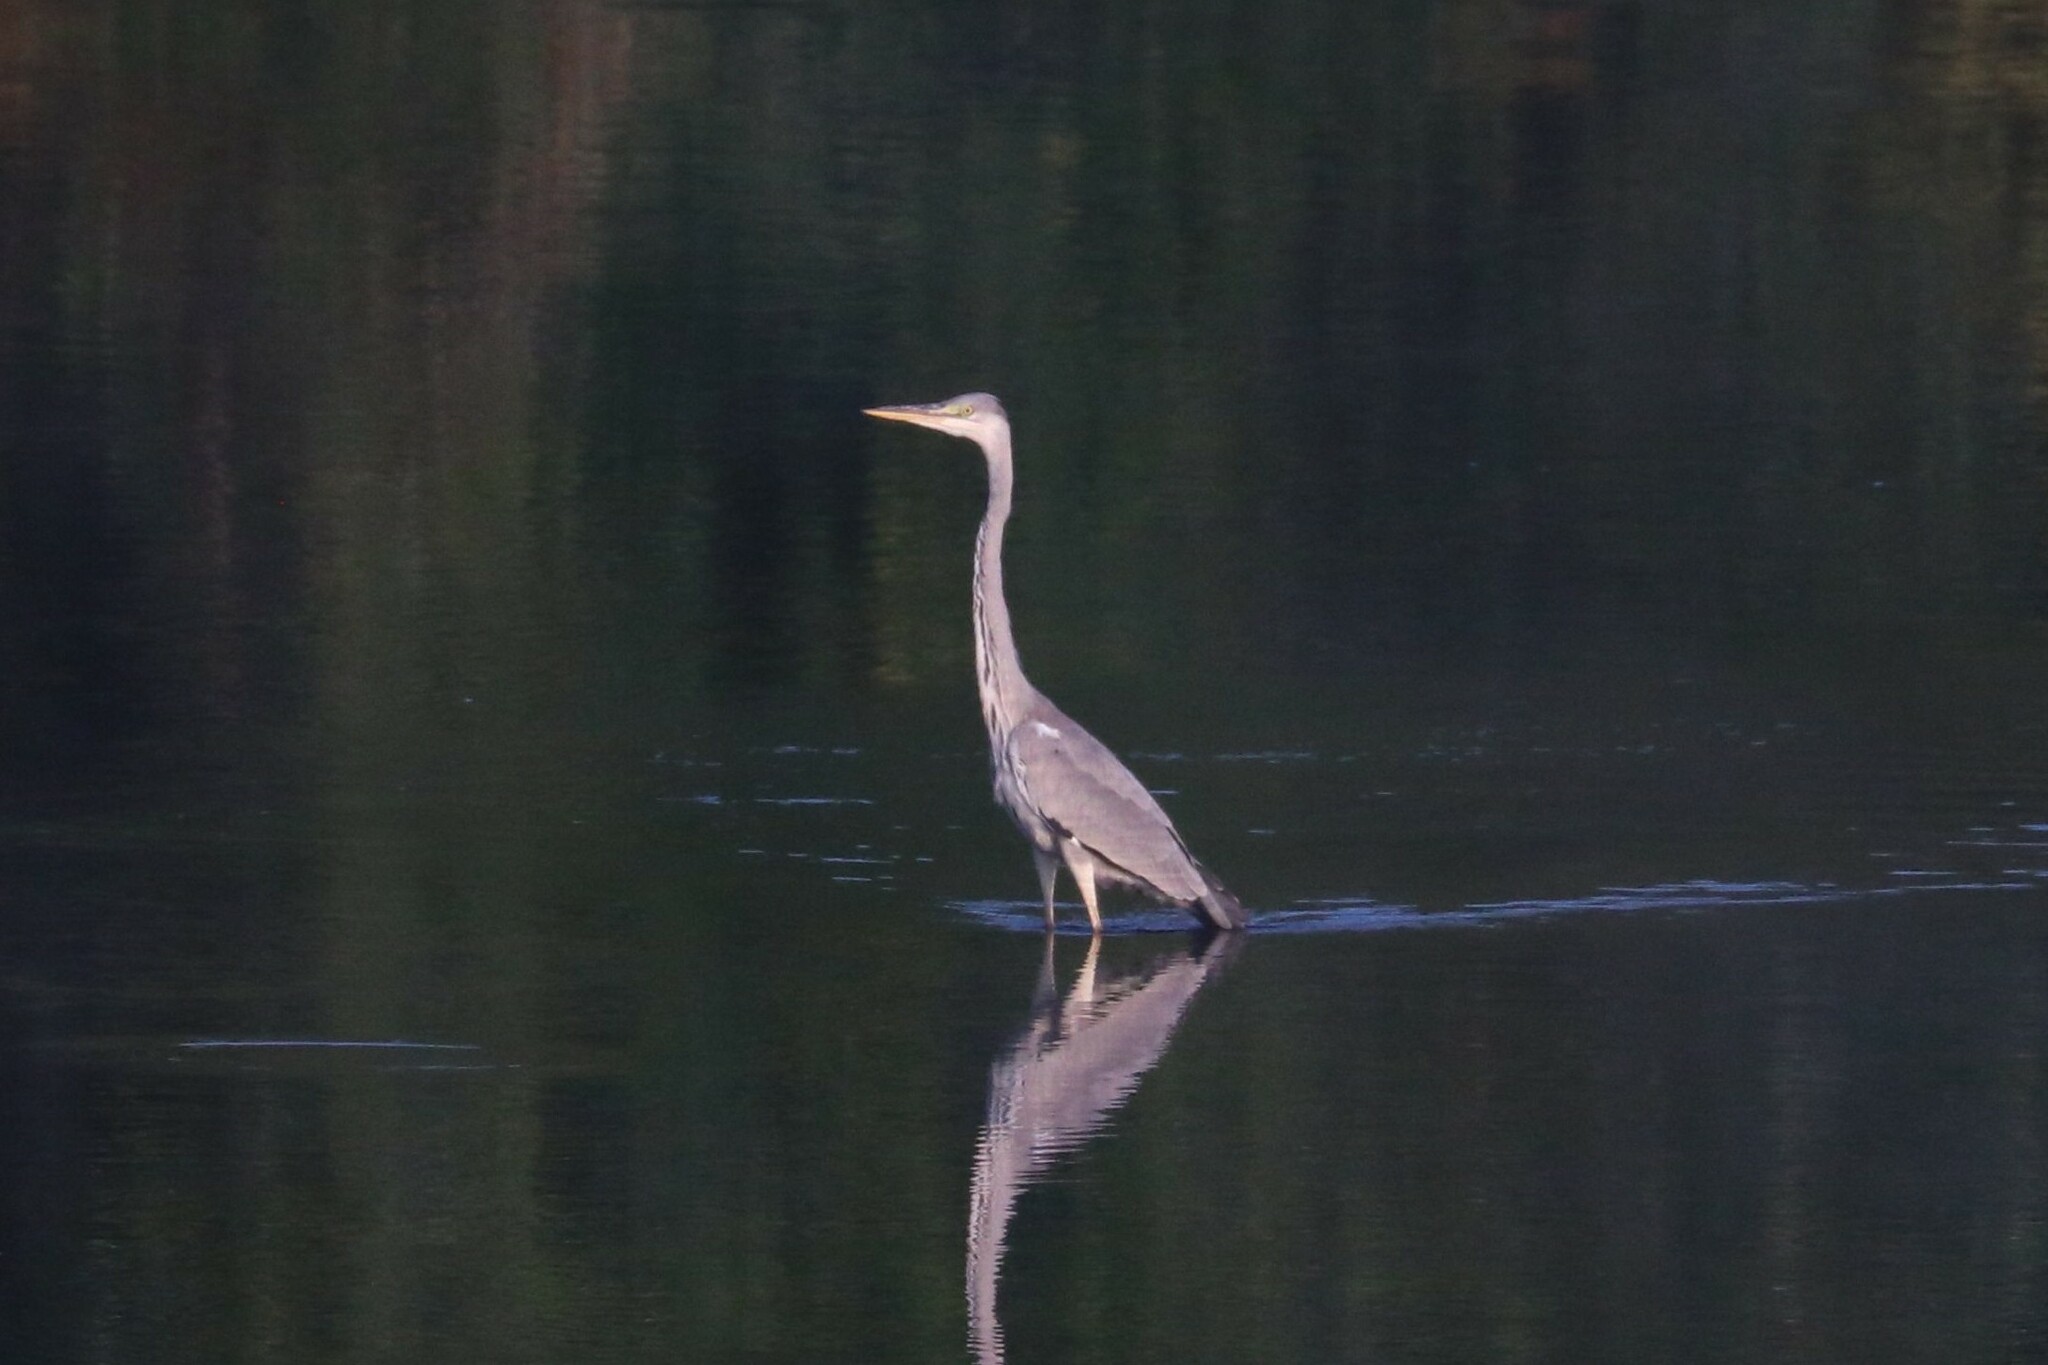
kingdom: Animalia
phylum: Chordata
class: Aves
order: Pelecaniformes
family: Ardeidae
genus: Ardea
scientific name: Ardea cinerea
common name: Grey heron
